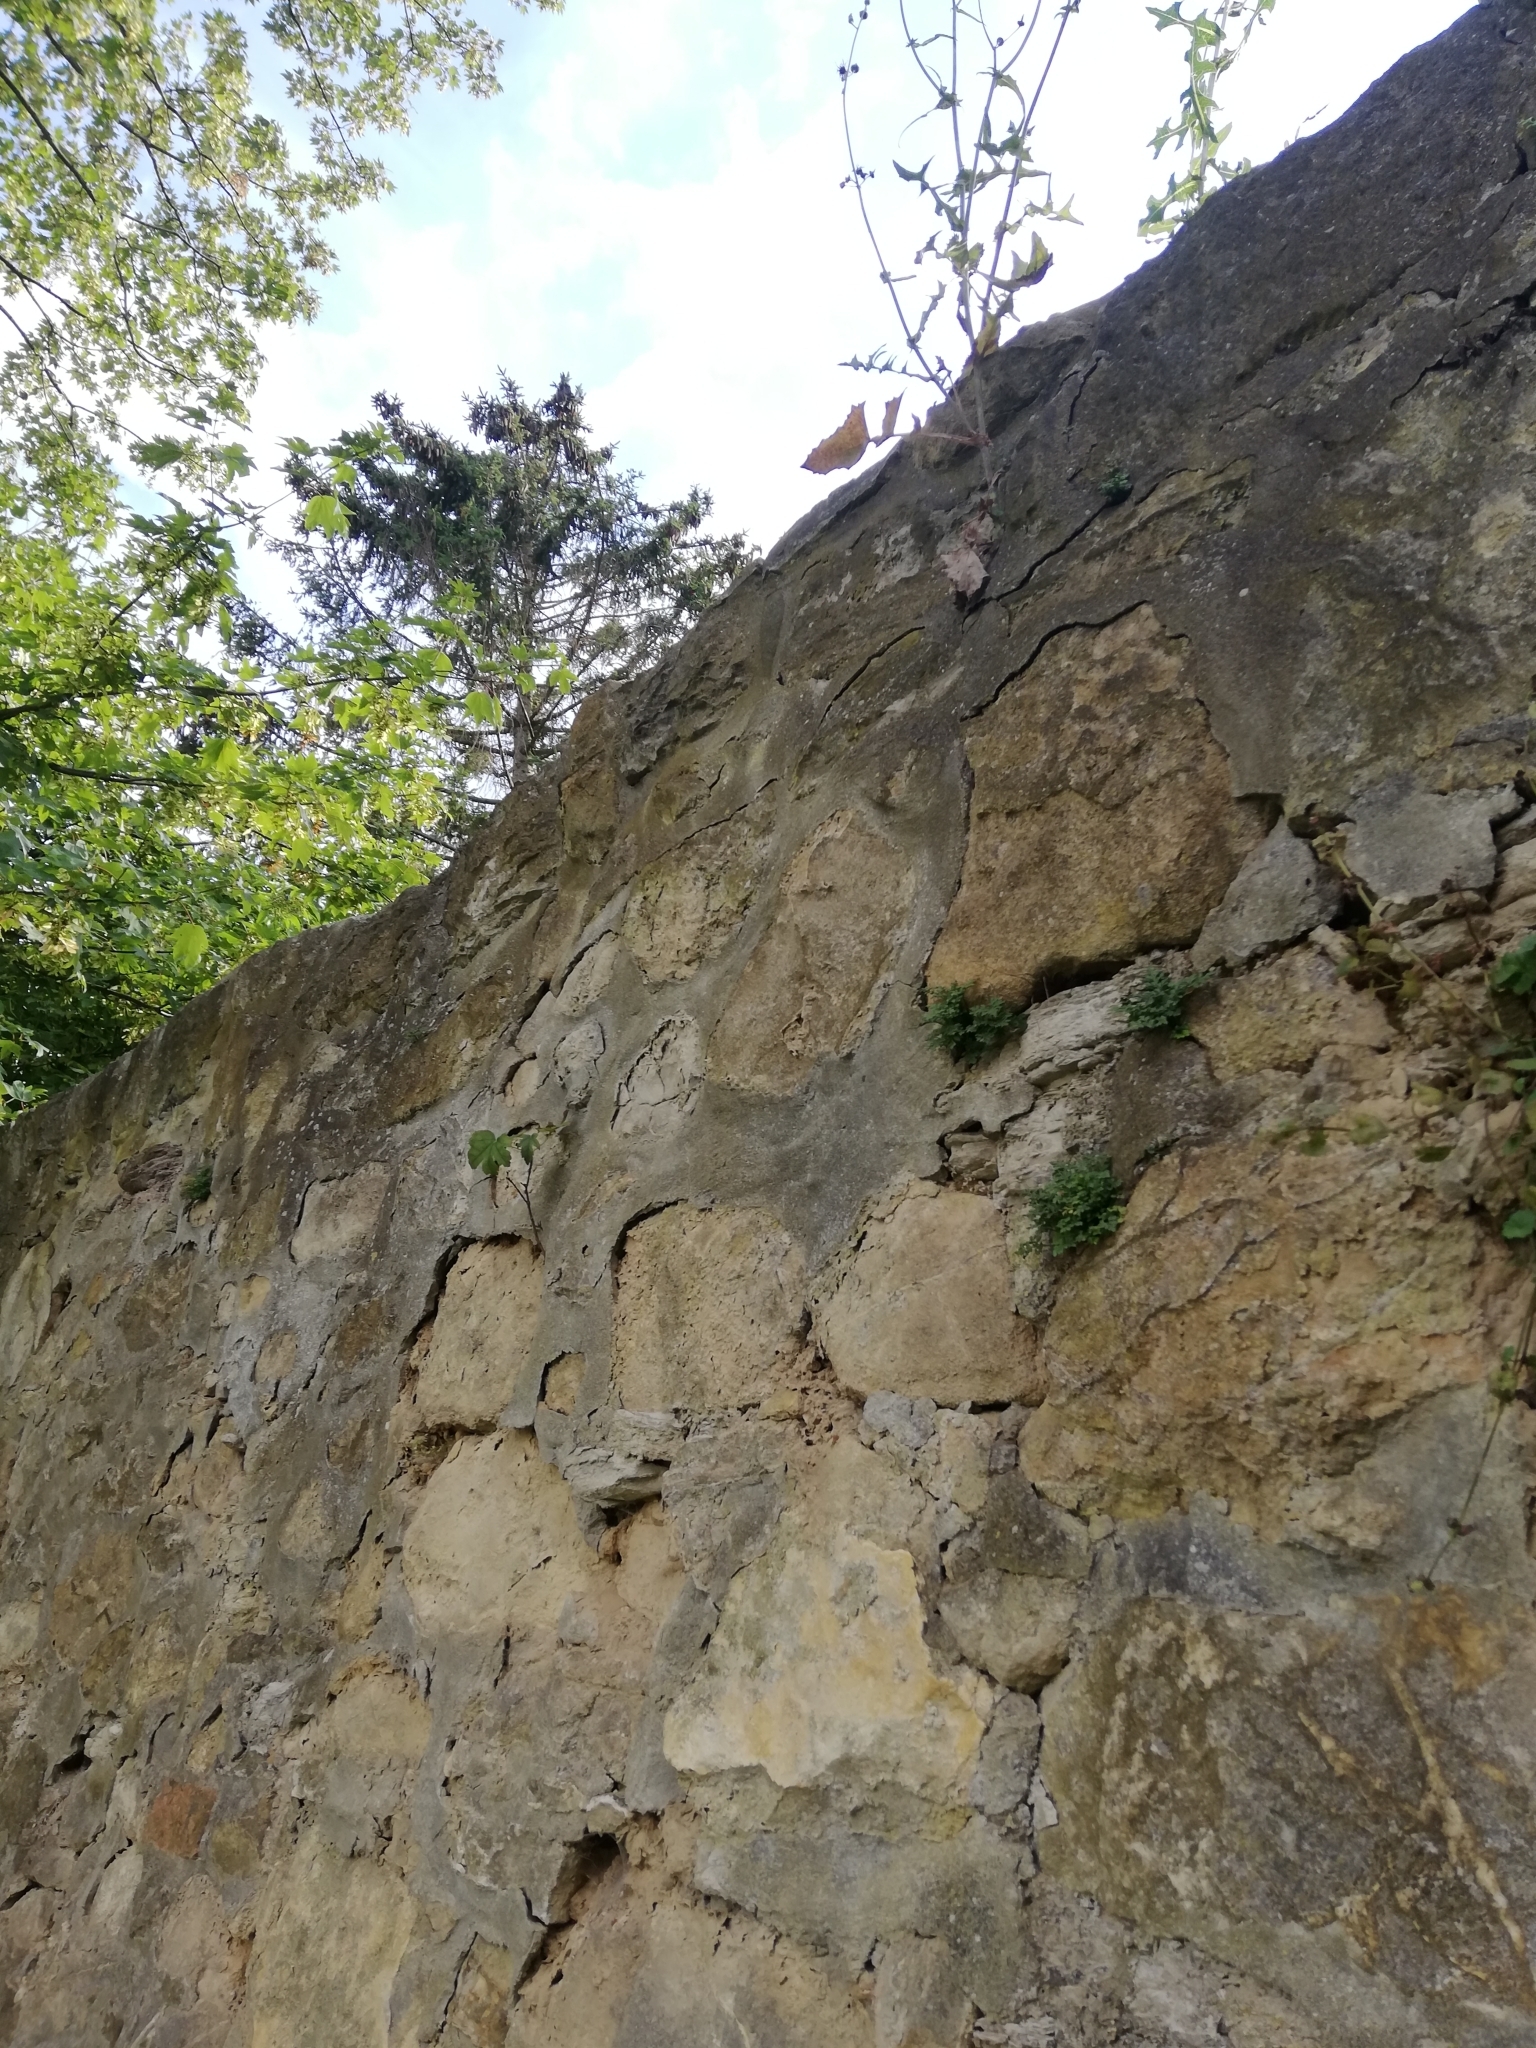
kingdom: Plantae
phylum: Tracheophyta
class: Polypodiopsida
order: Polypodiales
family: Aspleniaceae
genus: Asplenium
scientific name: Asplenium ruta-muraria
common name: Wall-rue
